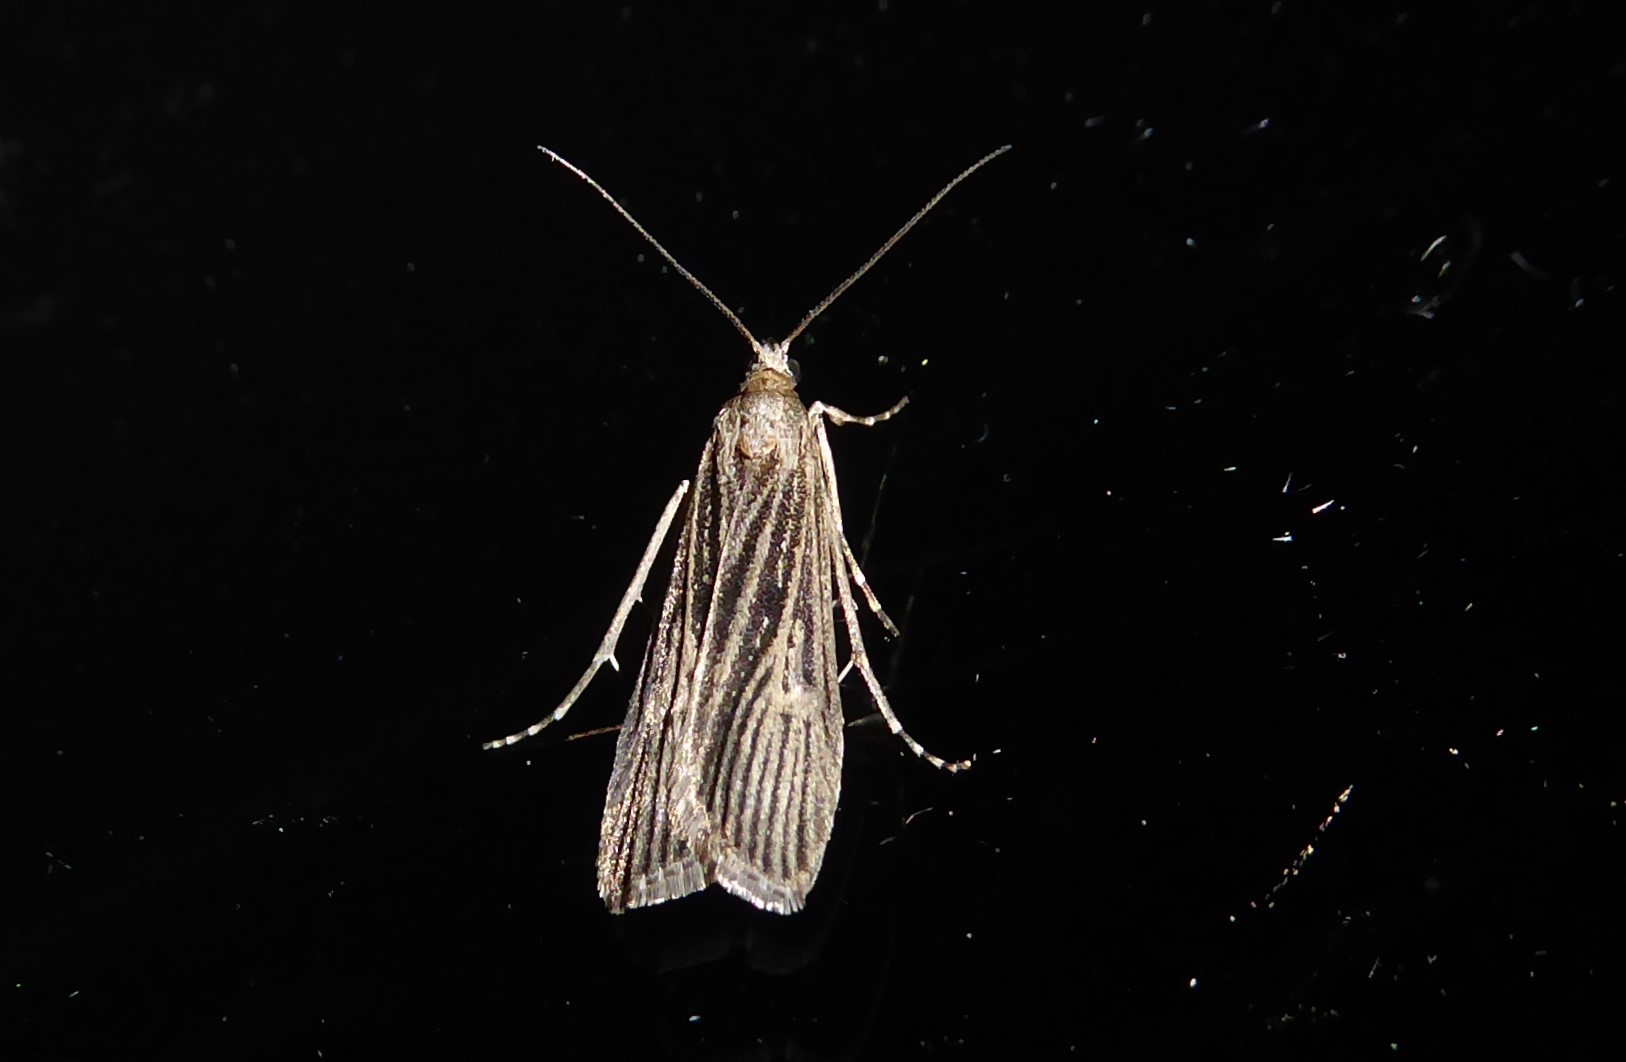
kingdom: Animalia
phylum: Arthropoda
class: Insecta
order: Lepidoptera
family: Crambidae
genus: Eudonia
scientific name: Eudonia atmogramma
